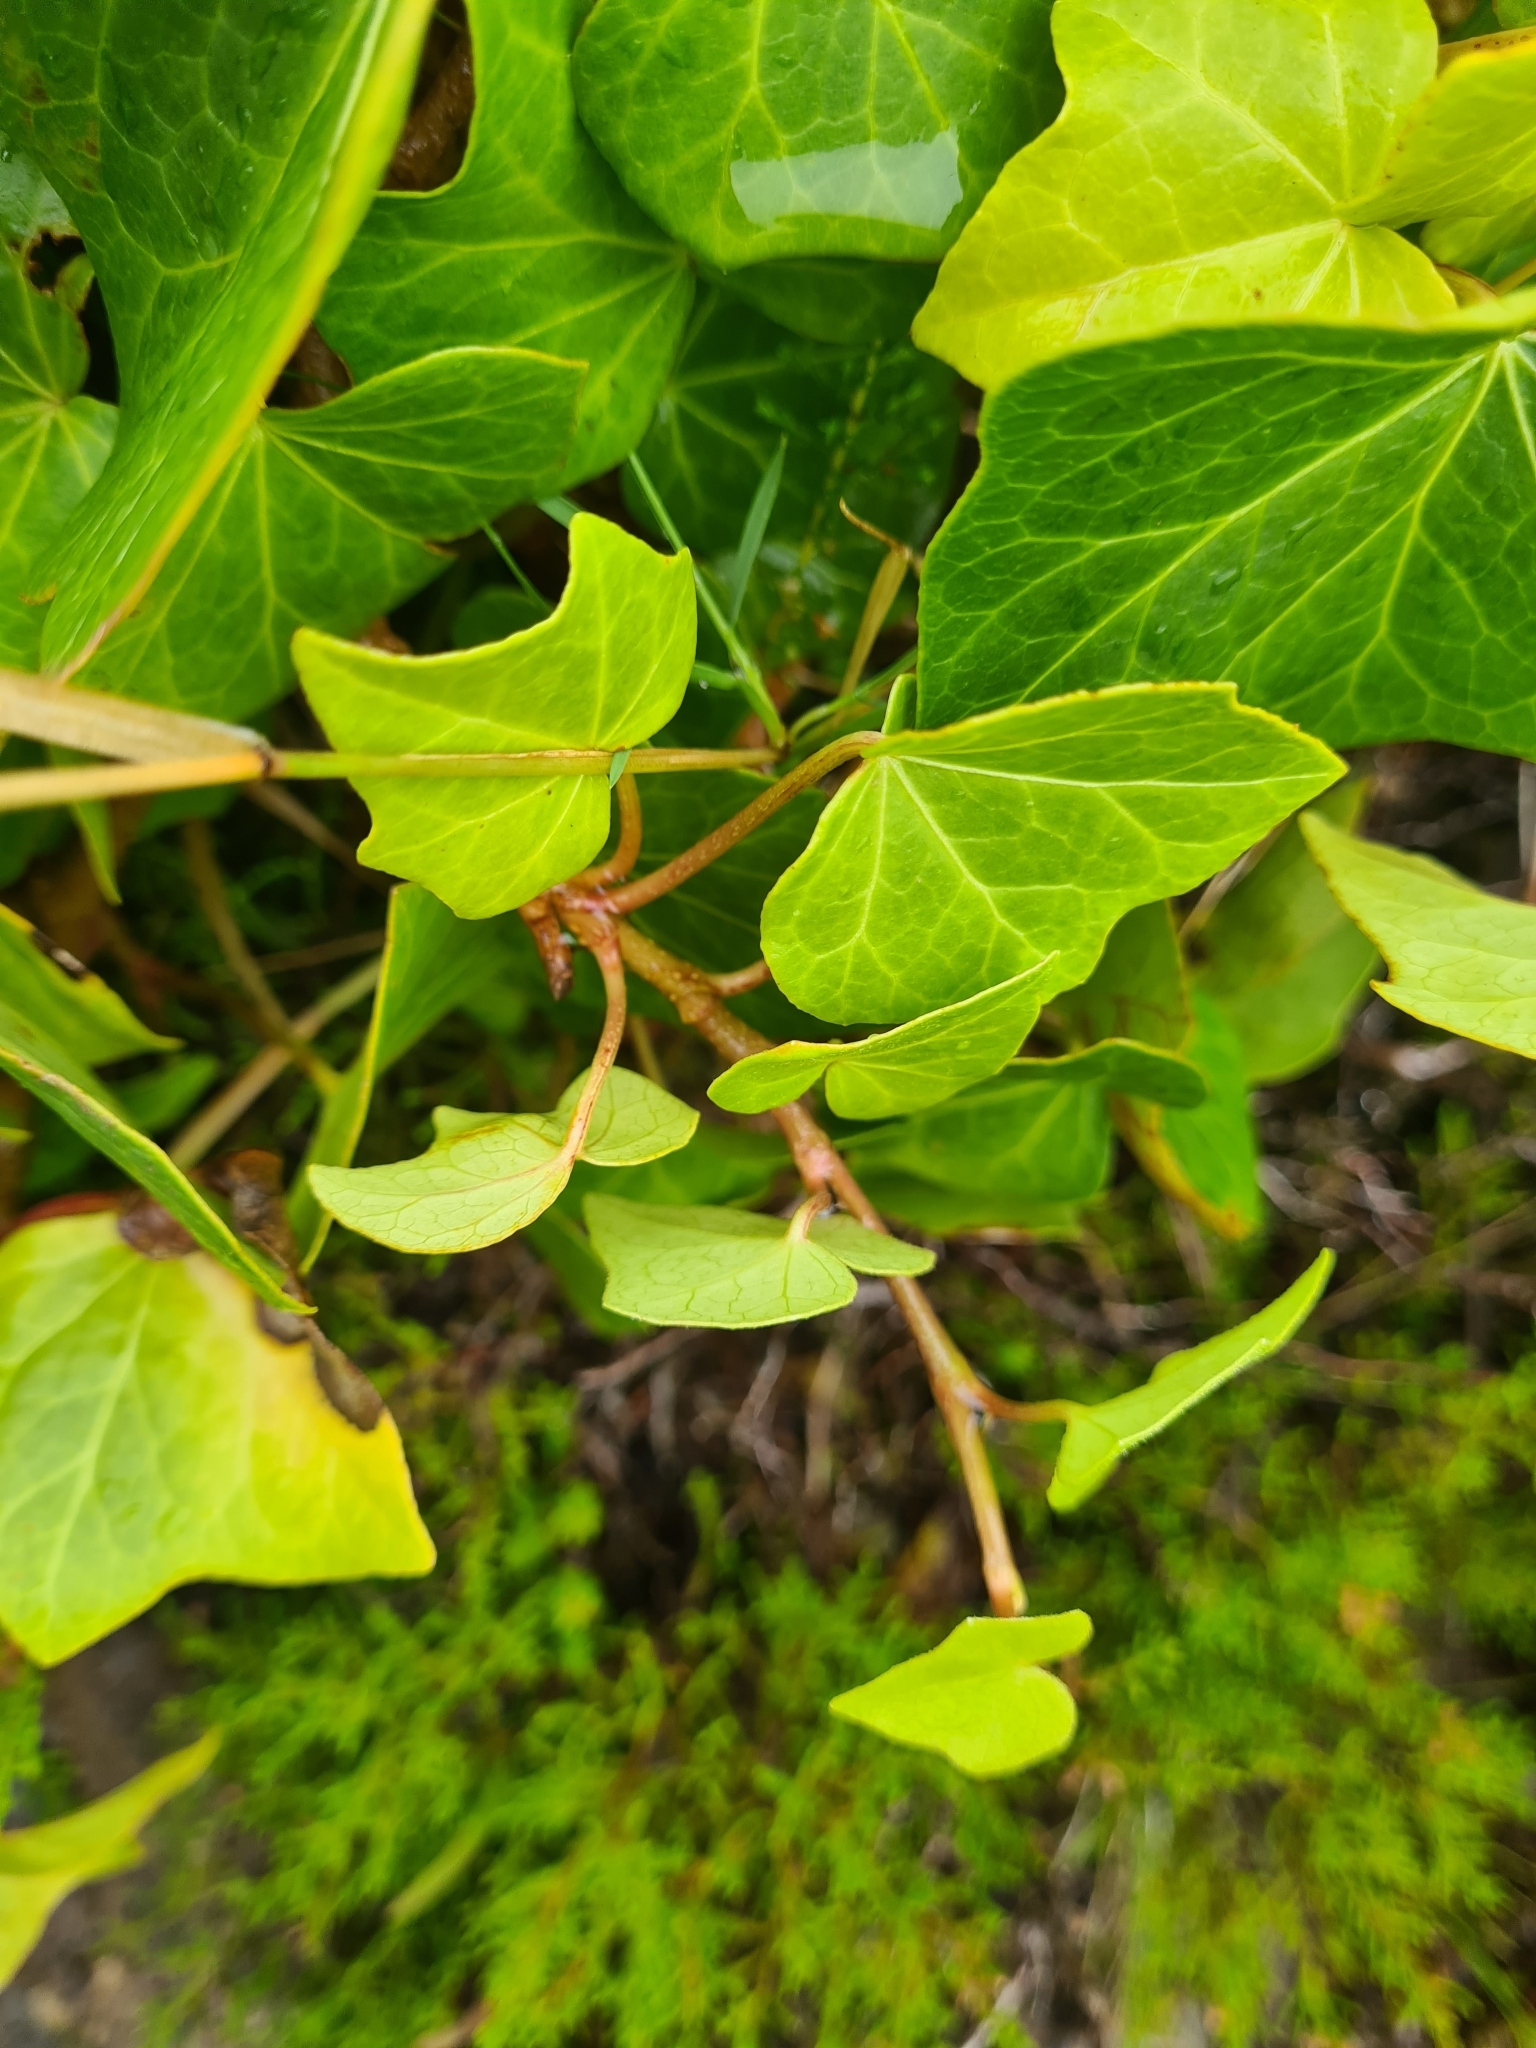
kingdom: Plantae
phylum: Tracheophyta
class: Magnoliopsida
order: Apiales
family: Araliaceae
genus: Hedera
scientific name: Hedera azorica
